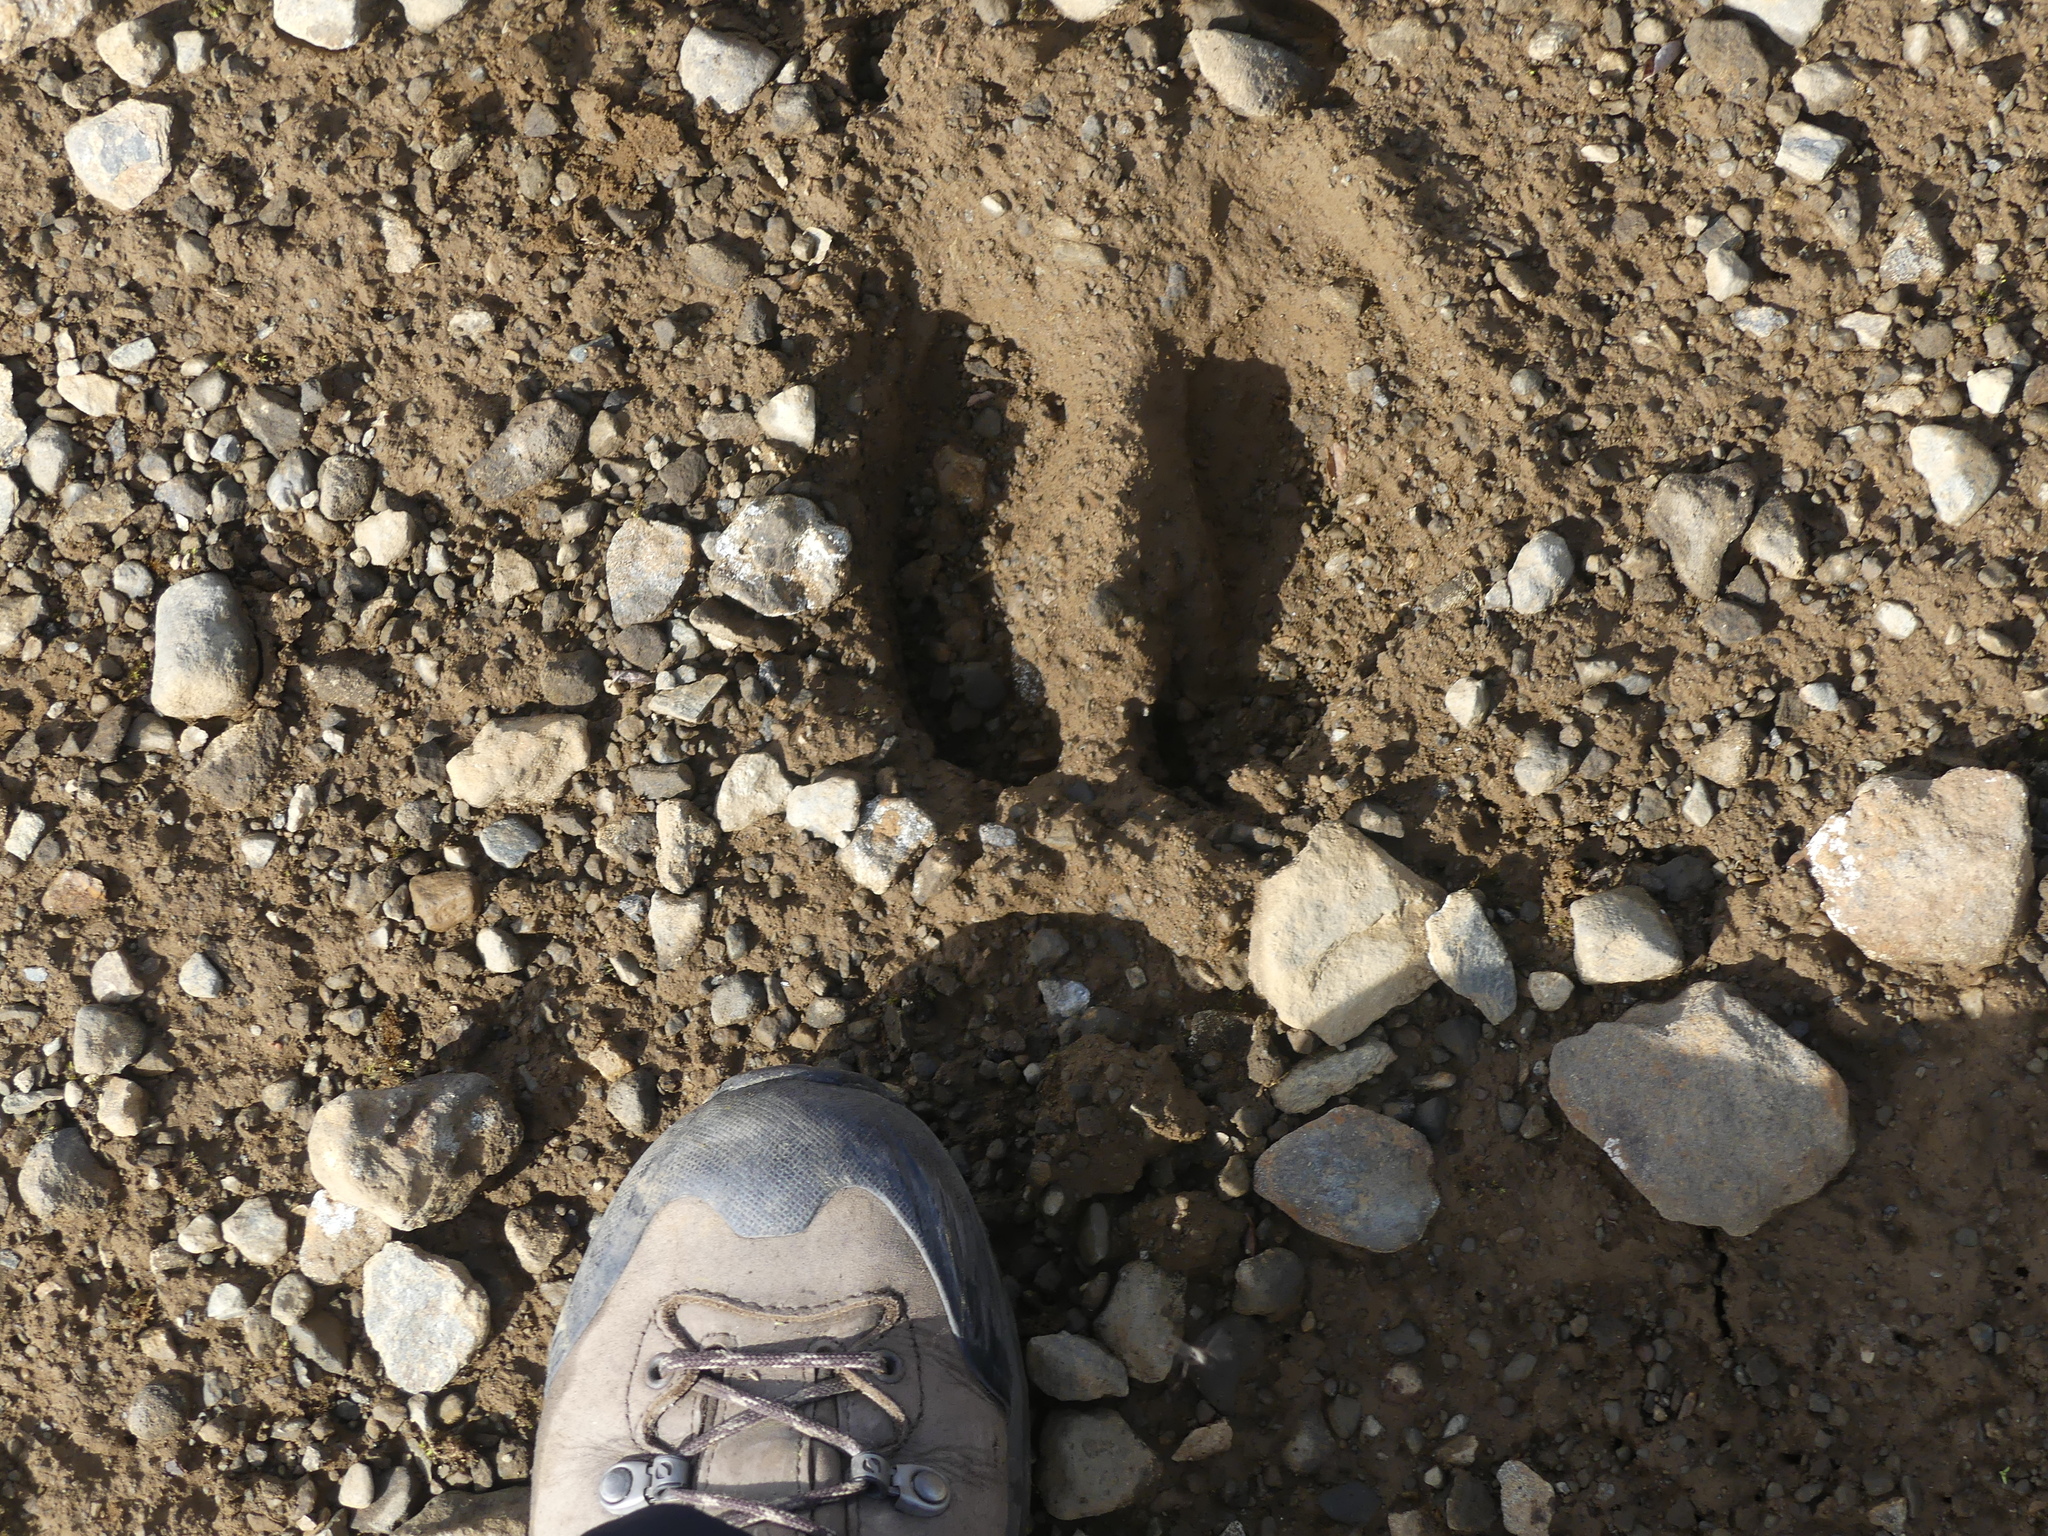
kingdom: Animalia
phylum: Chordata
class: Mammalia
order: Artiodactyla
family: Cervidae
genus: Rangifer
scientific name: Rangifer tarandus
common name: Reindeer
